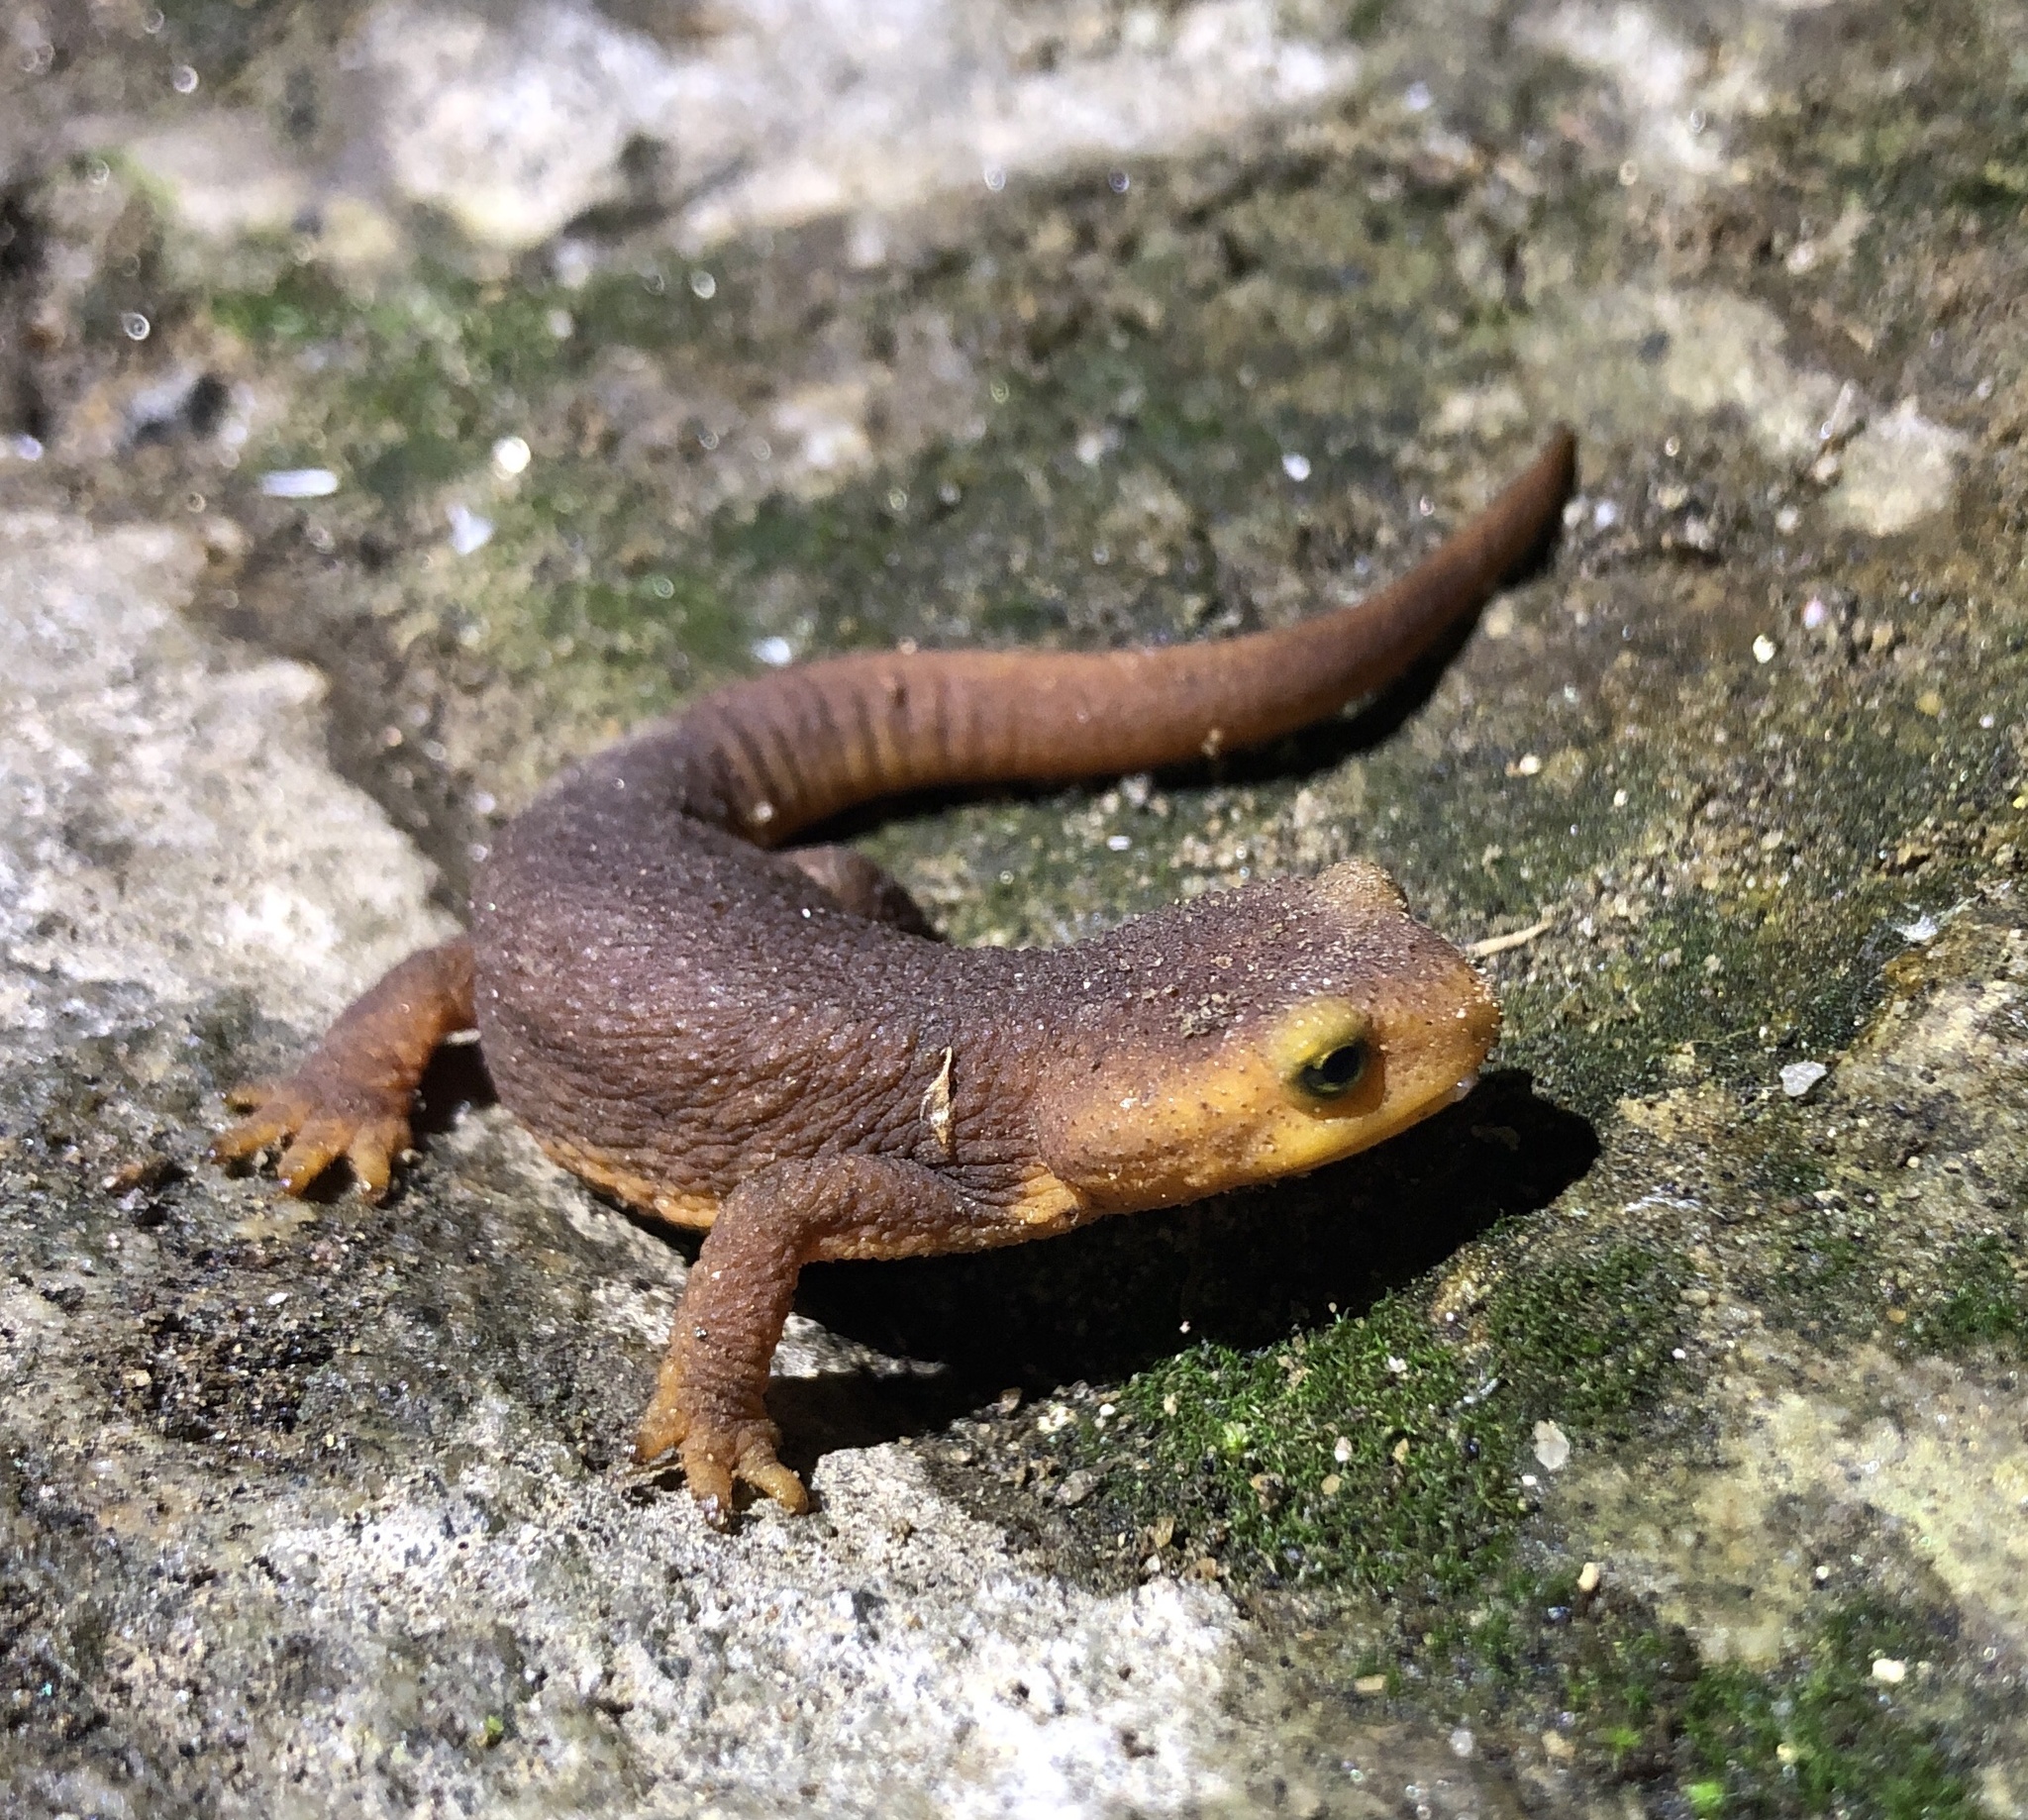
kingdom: Animalia
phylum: Chordata
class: Amphibia
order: Caudata
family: Salamandridae
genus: Taricha
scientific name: Taricha torosa
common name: California newt
